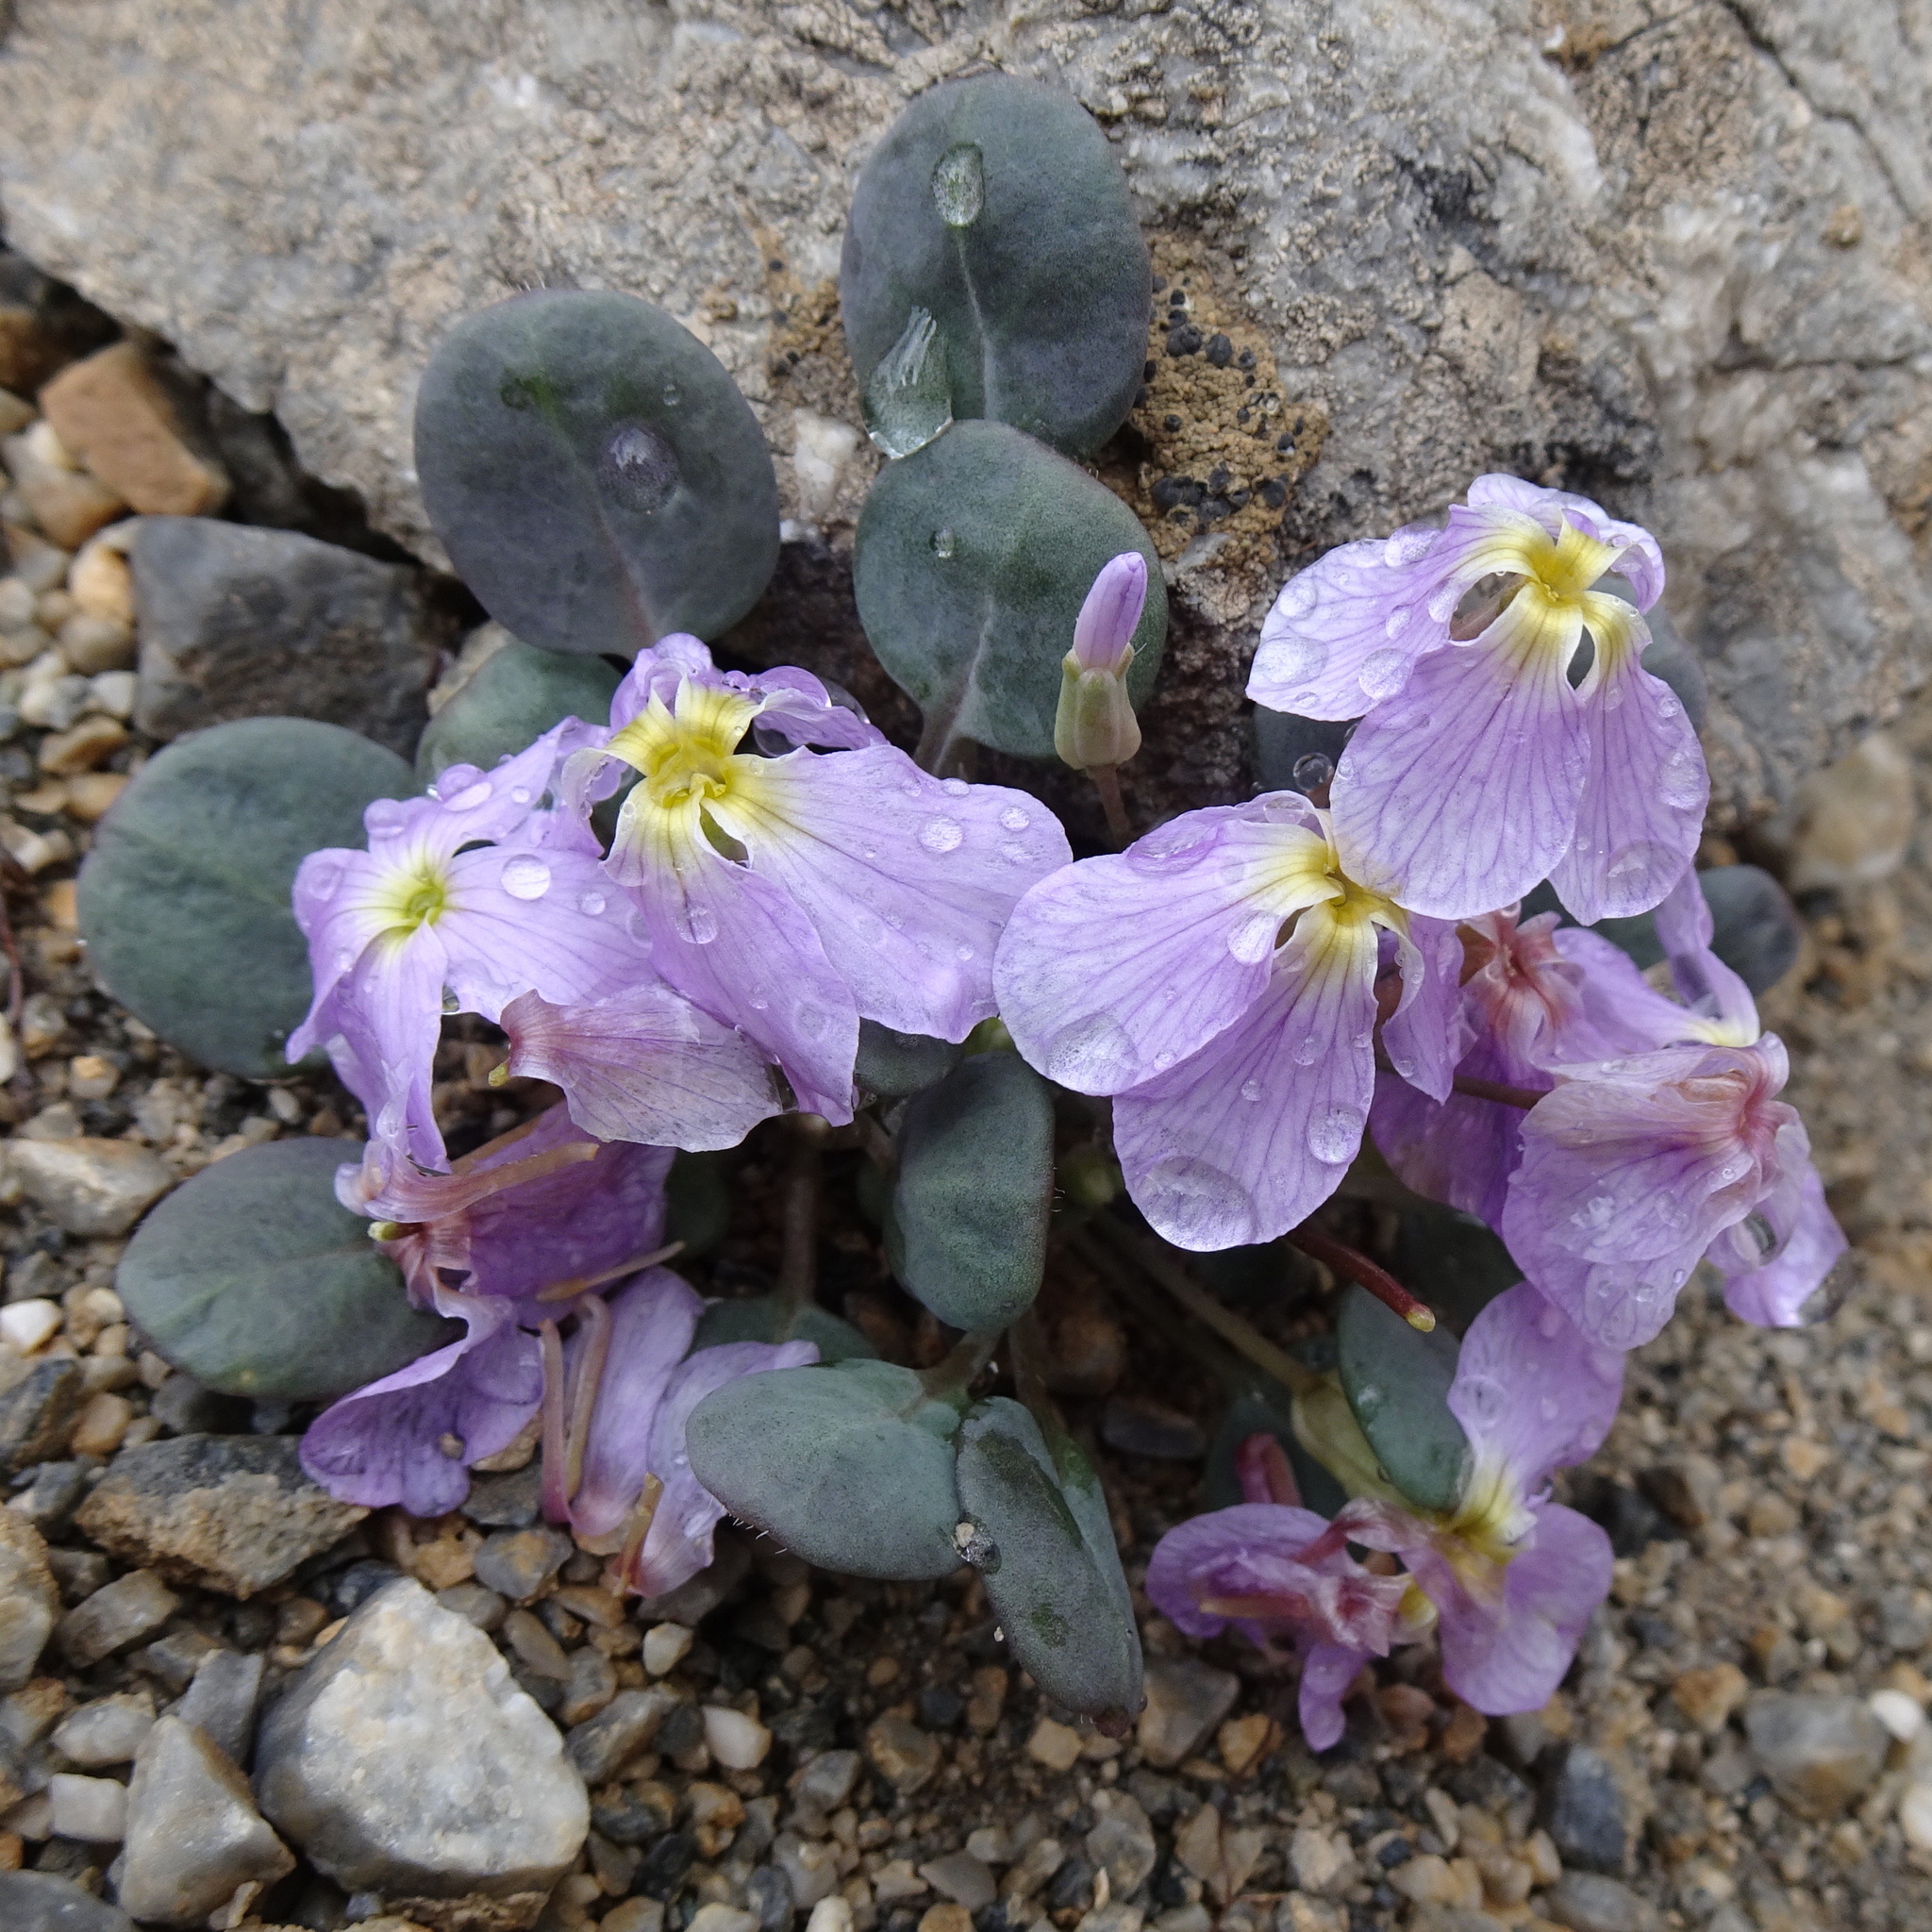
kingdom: Plantae
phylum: Tracheophyta
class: Magnoliopsida
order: Brassicales
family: Brassicaceae
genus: Leiospora
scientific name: Leiospora subscapigera
